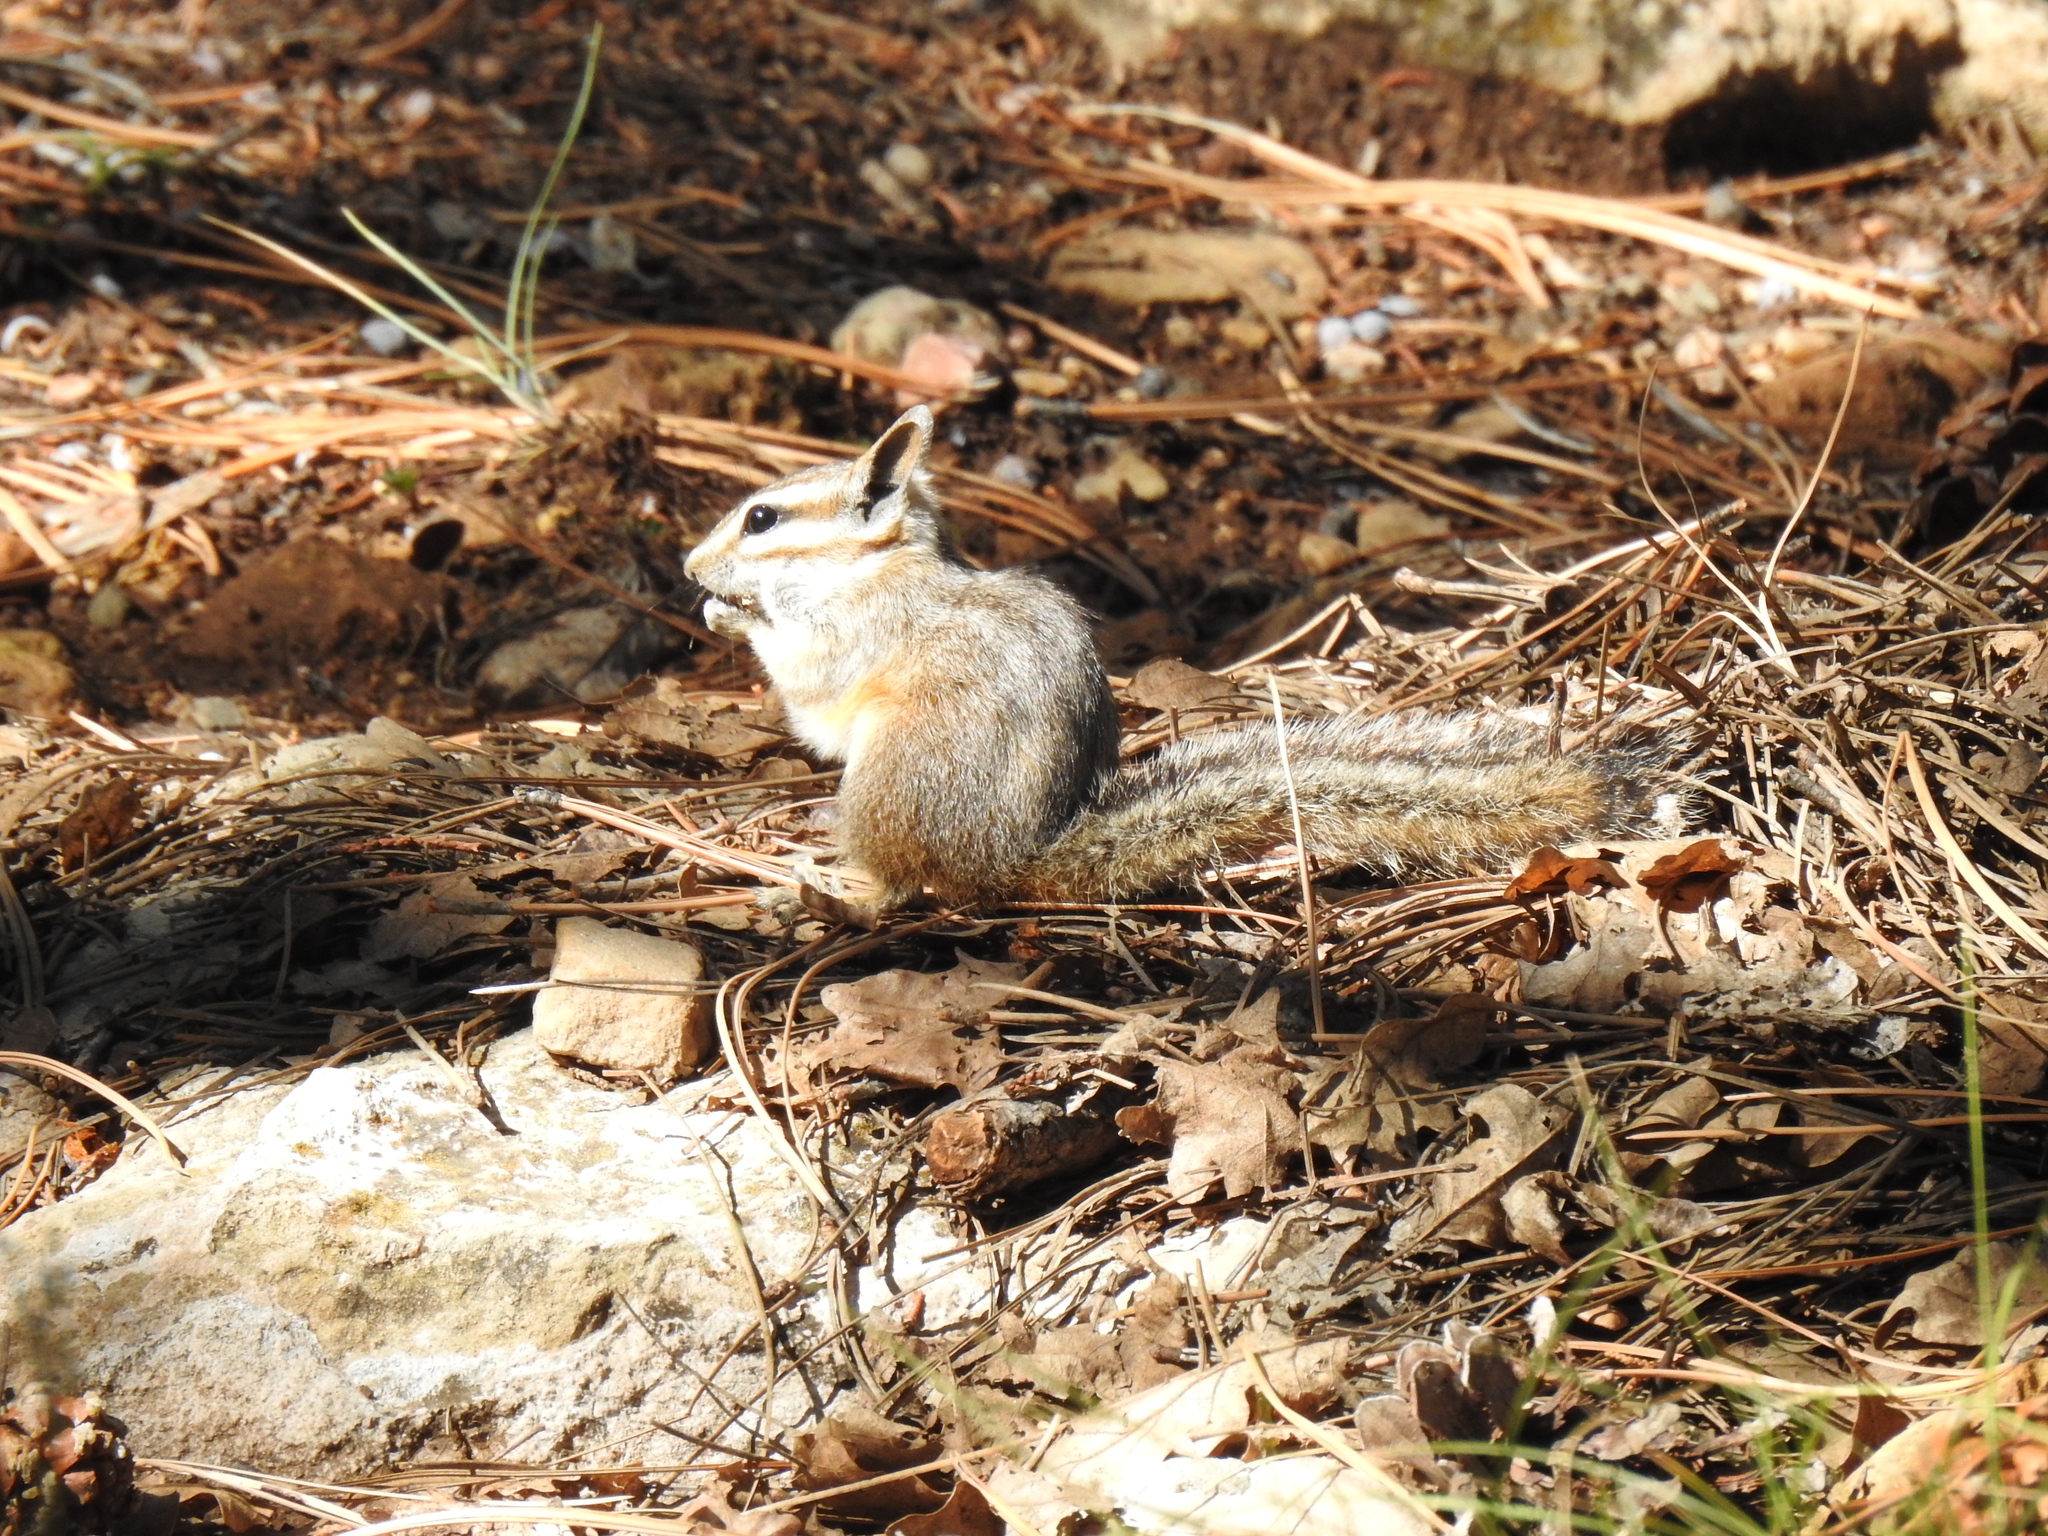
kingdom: Animalia
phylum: Chordata
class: Mammalia
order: Rodentia
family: Sciuridae
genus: Tamias
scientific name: Tamias dorsalis
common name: Cliff chipmunk
